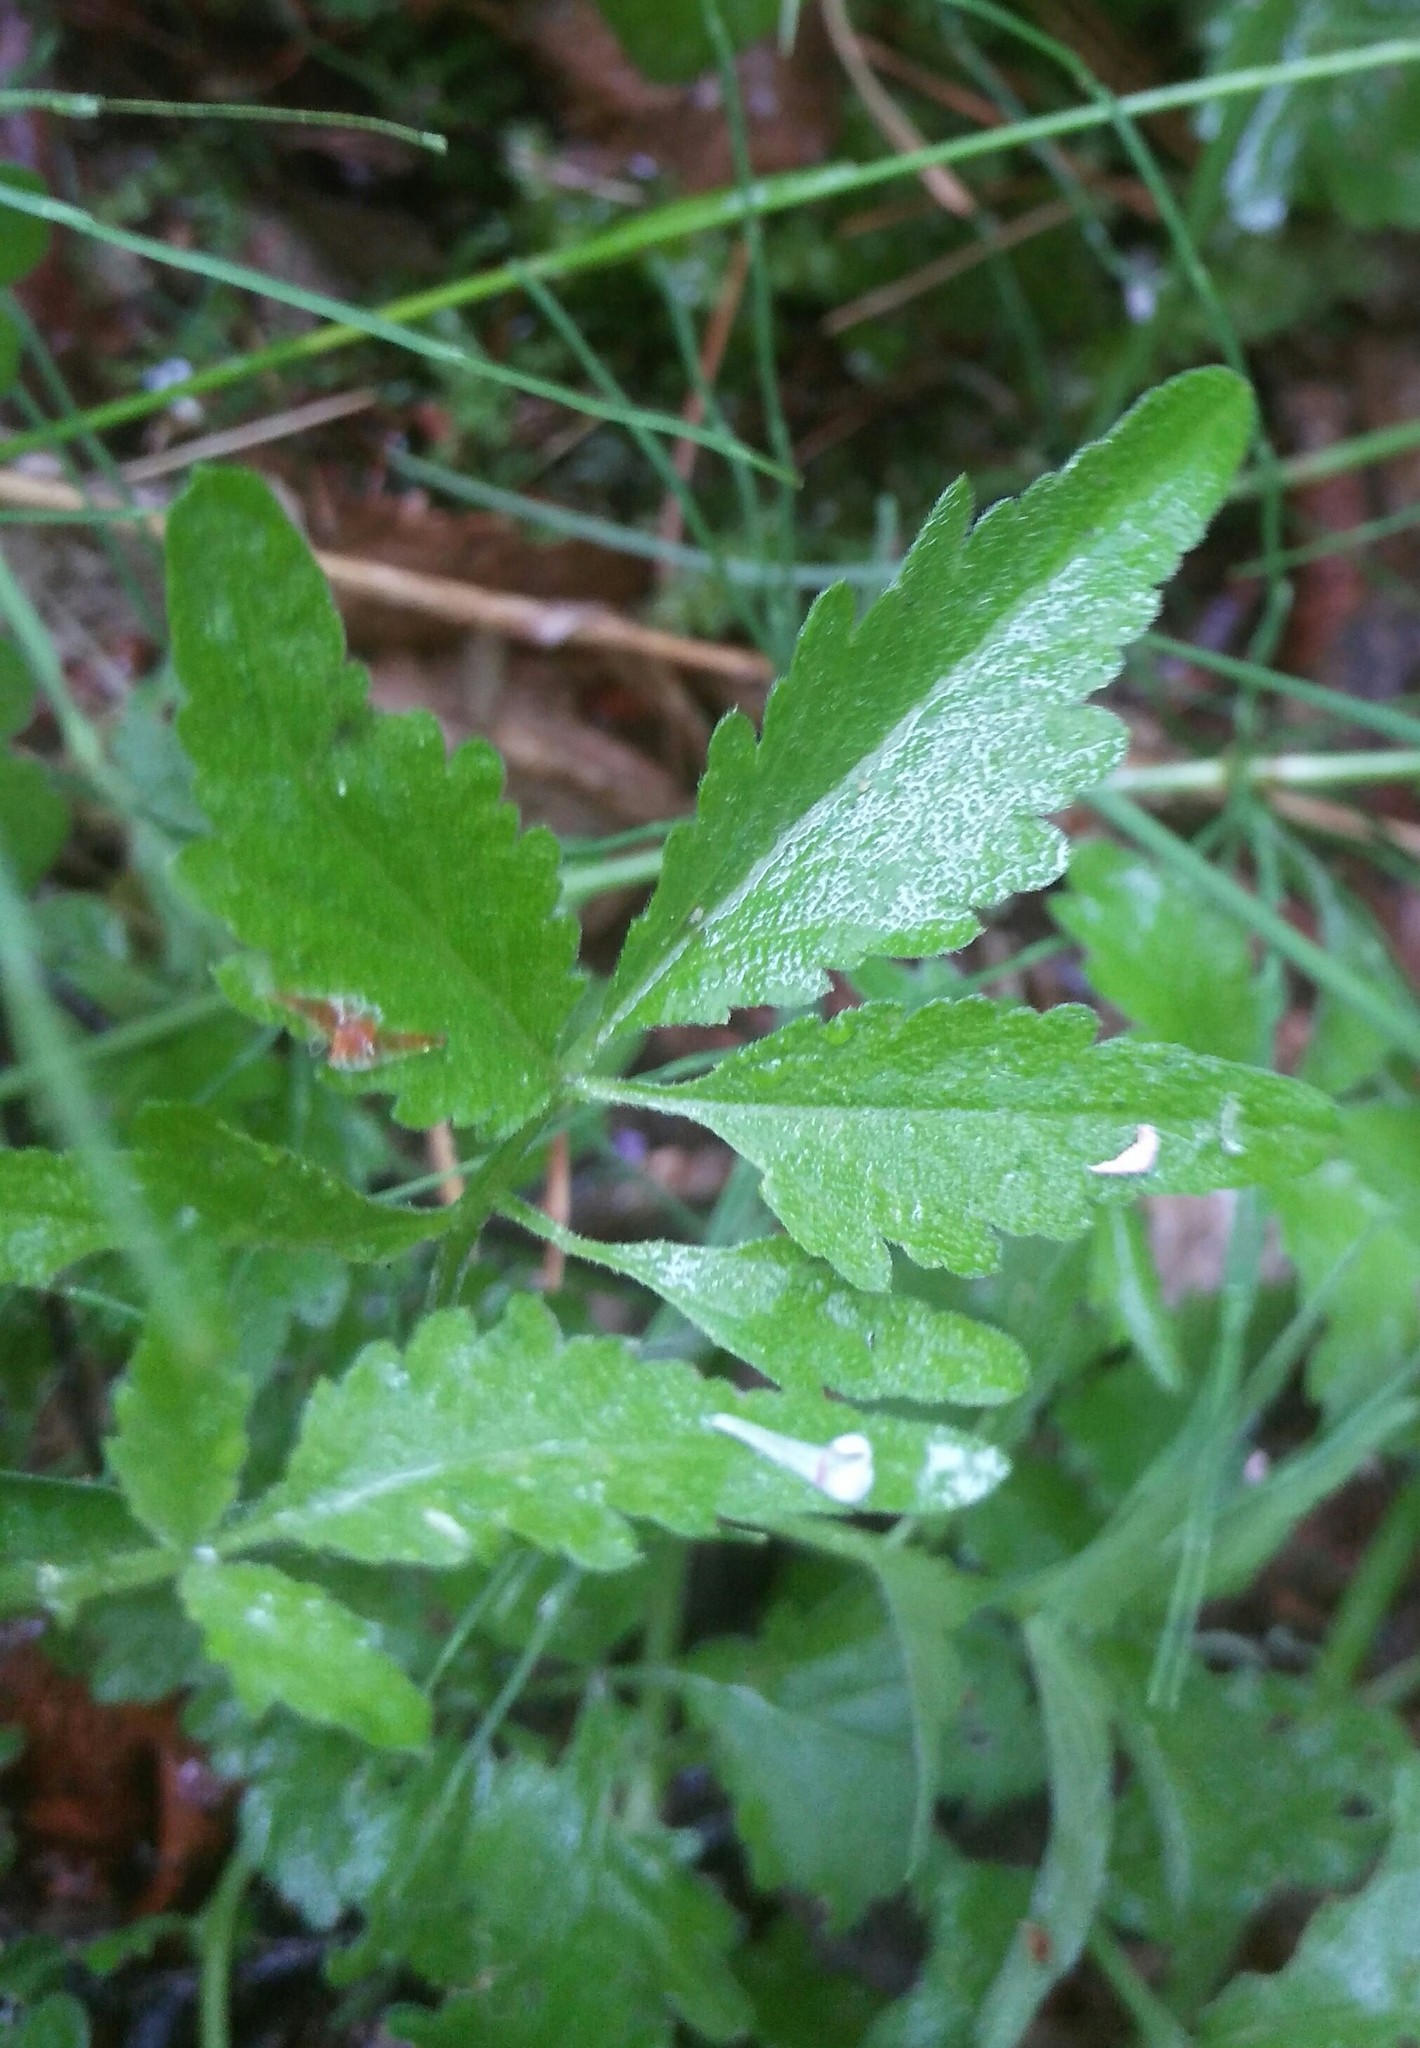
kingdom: Plantae
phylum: Tracheophyta
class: Magnoliopsida
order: Brassicales
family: Brassicaceae
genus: Cardamine
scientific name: Cardamine macrophylla
